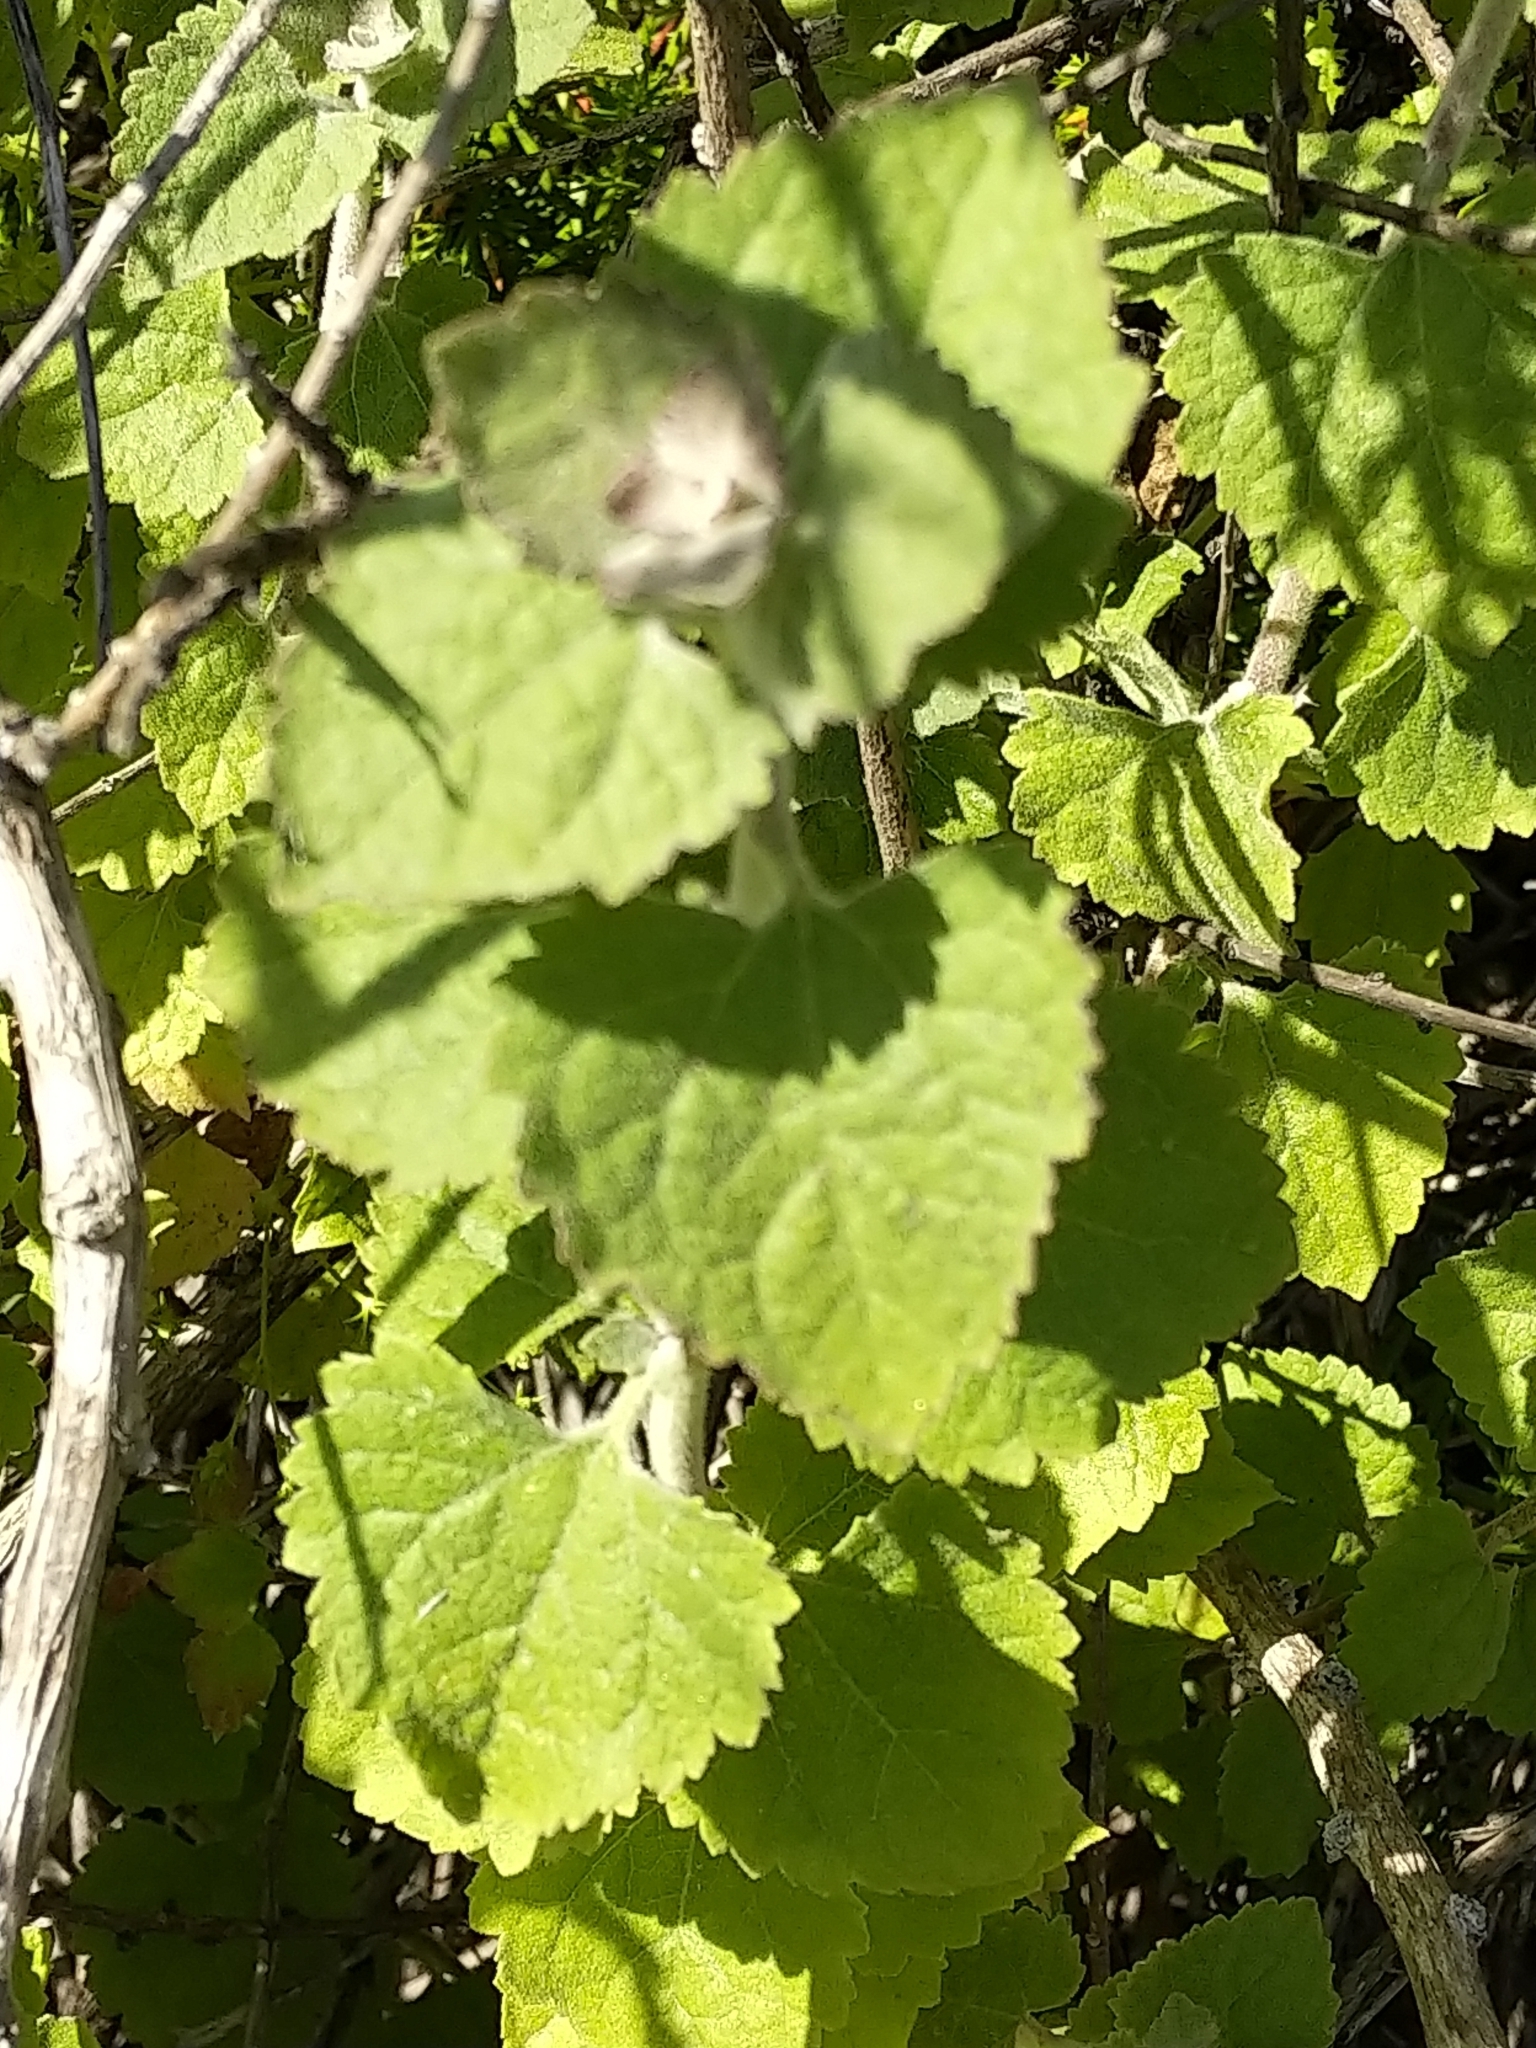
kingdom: Plantae
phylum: Tracheophyta
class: Magnoliopsida
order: Asterales
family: Asteraceae
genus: Brickellia
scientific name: Brickellia californica
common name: California brickellbush
